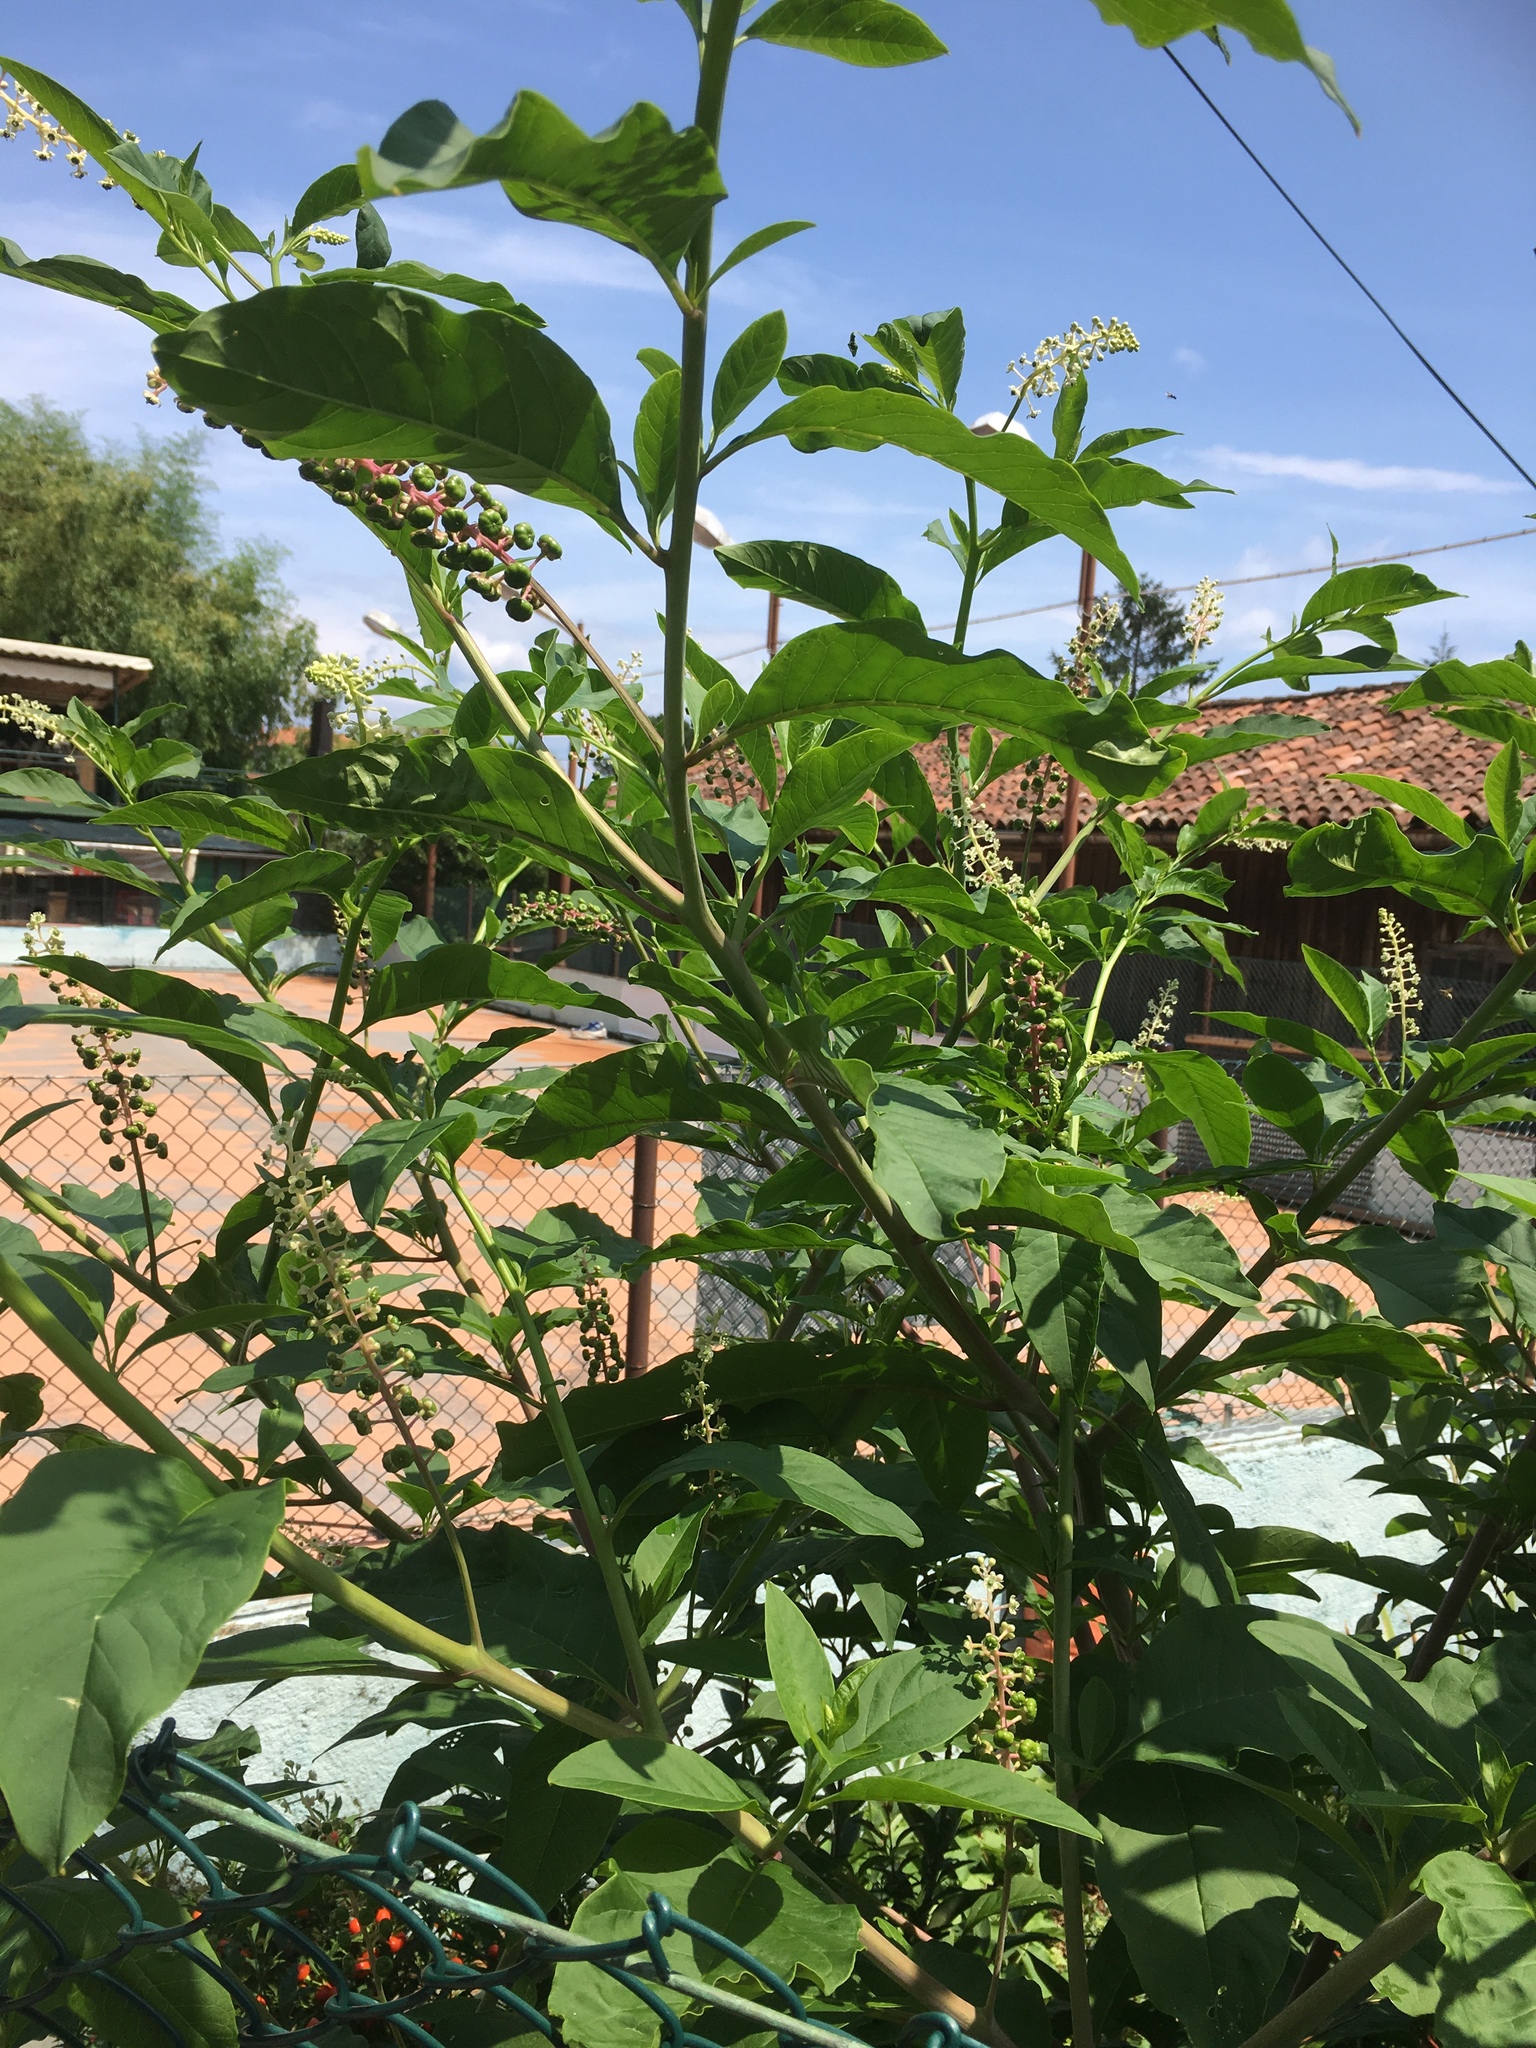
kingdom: Plantae
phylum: Tracheophyta
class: Magnoliopsida
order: Caryophyllales
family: Phytolaccaceae
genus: Phytolacca
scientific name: Phytolacca americana
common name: American pokeweed
